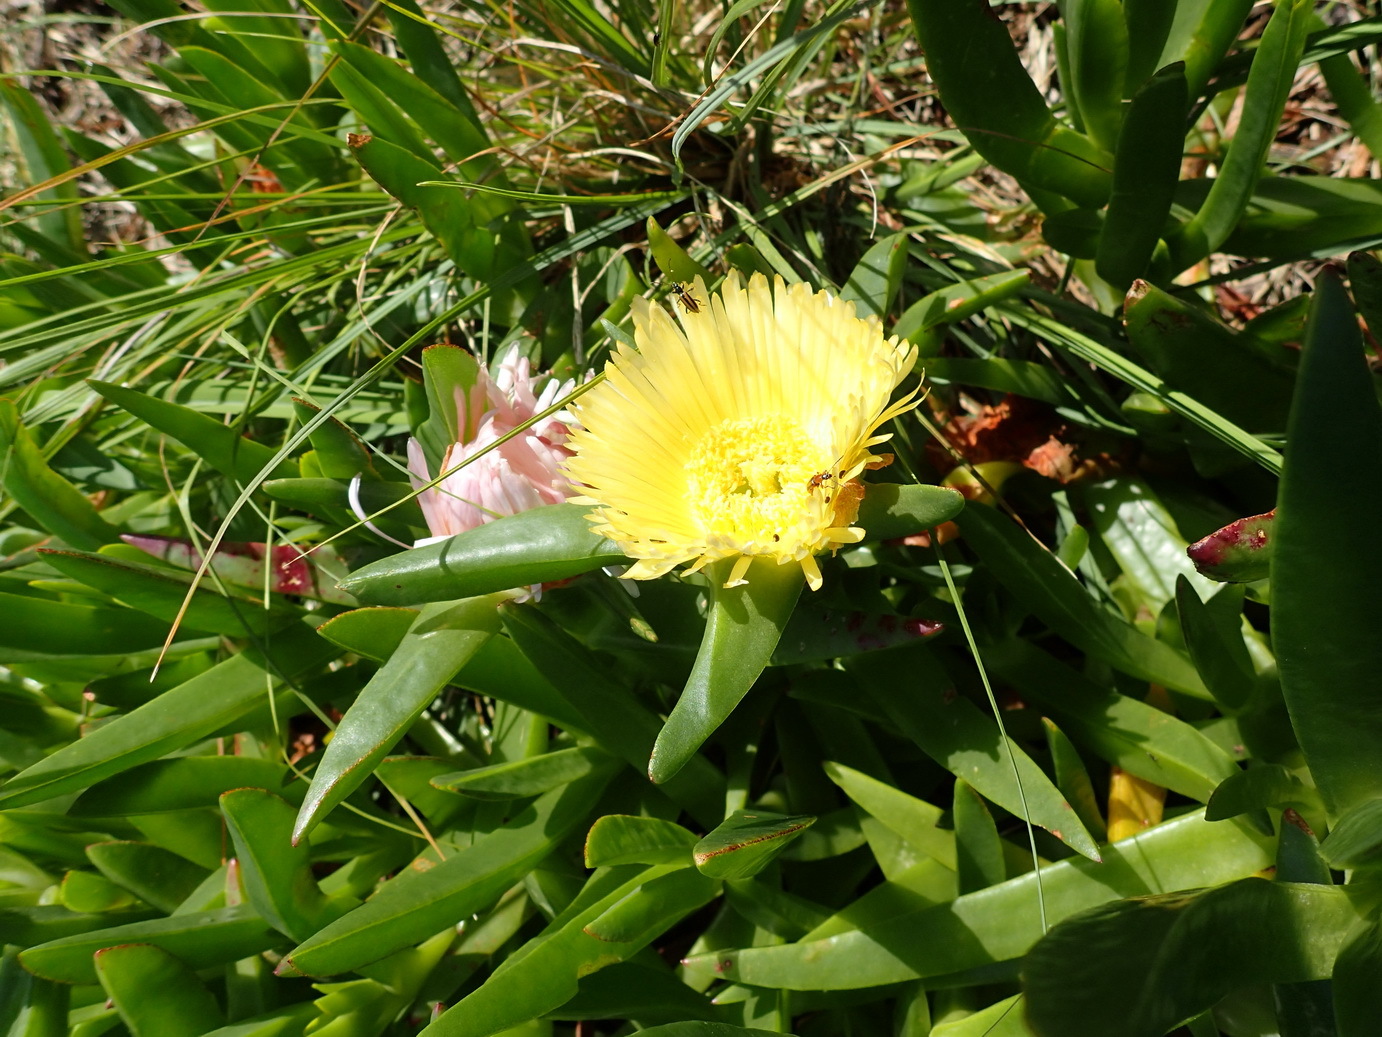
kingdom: Plantae
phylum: Tracheophyta
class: Magnoliopsida
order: Caryophyllales
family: Aizoaceae
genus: Carpobrotus
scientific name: Carpobrotus edulis
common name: Hottentot-fig
